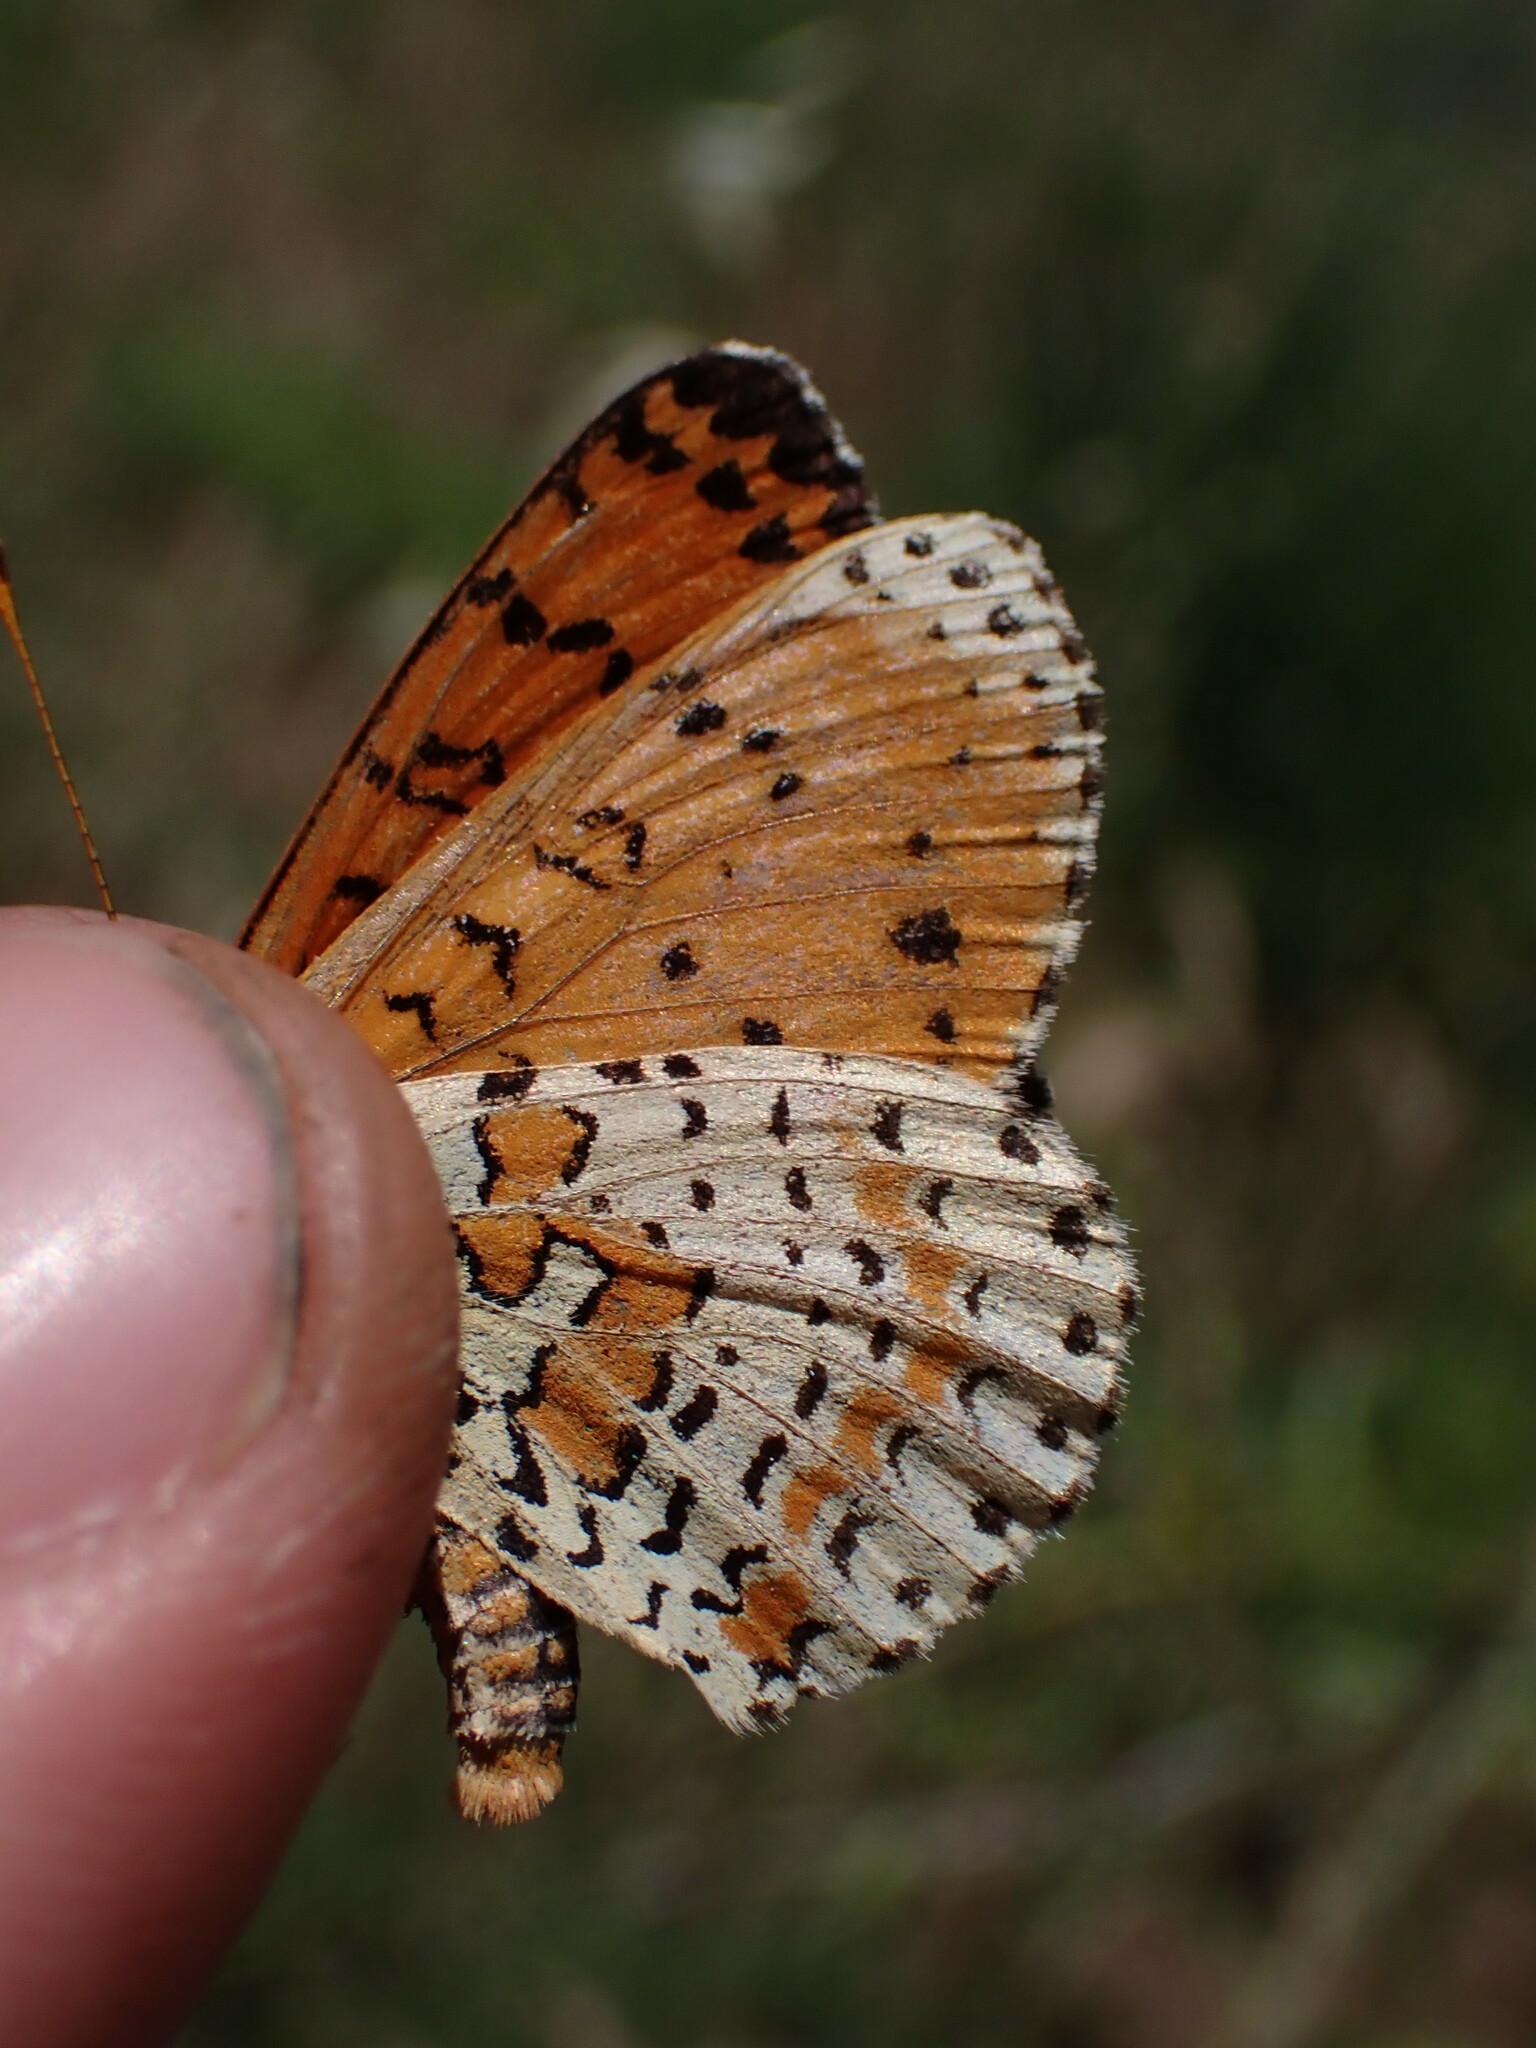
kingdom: Animalia
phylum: Arthropoda
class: Insecta
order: Lepidoptera
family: Nymphalidae
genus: Melitaea
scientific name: Melitaea didyma
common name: Spotted fritillary
